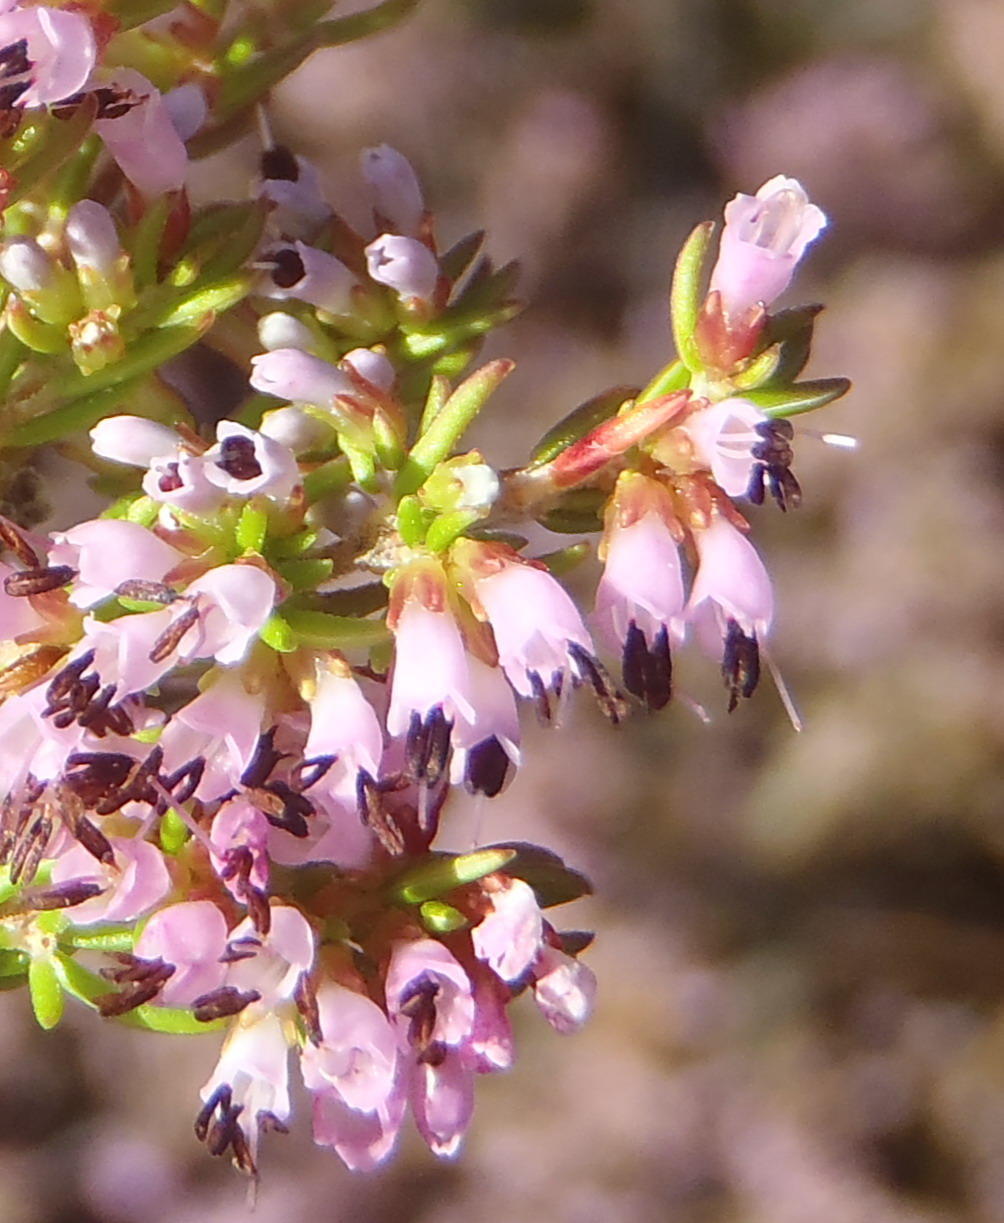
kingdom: Plantae
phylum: Tracheophyta
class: Magnoliopsida
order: Ericales
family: Ericaceae
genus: Erica
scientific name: Erica uberiflora
